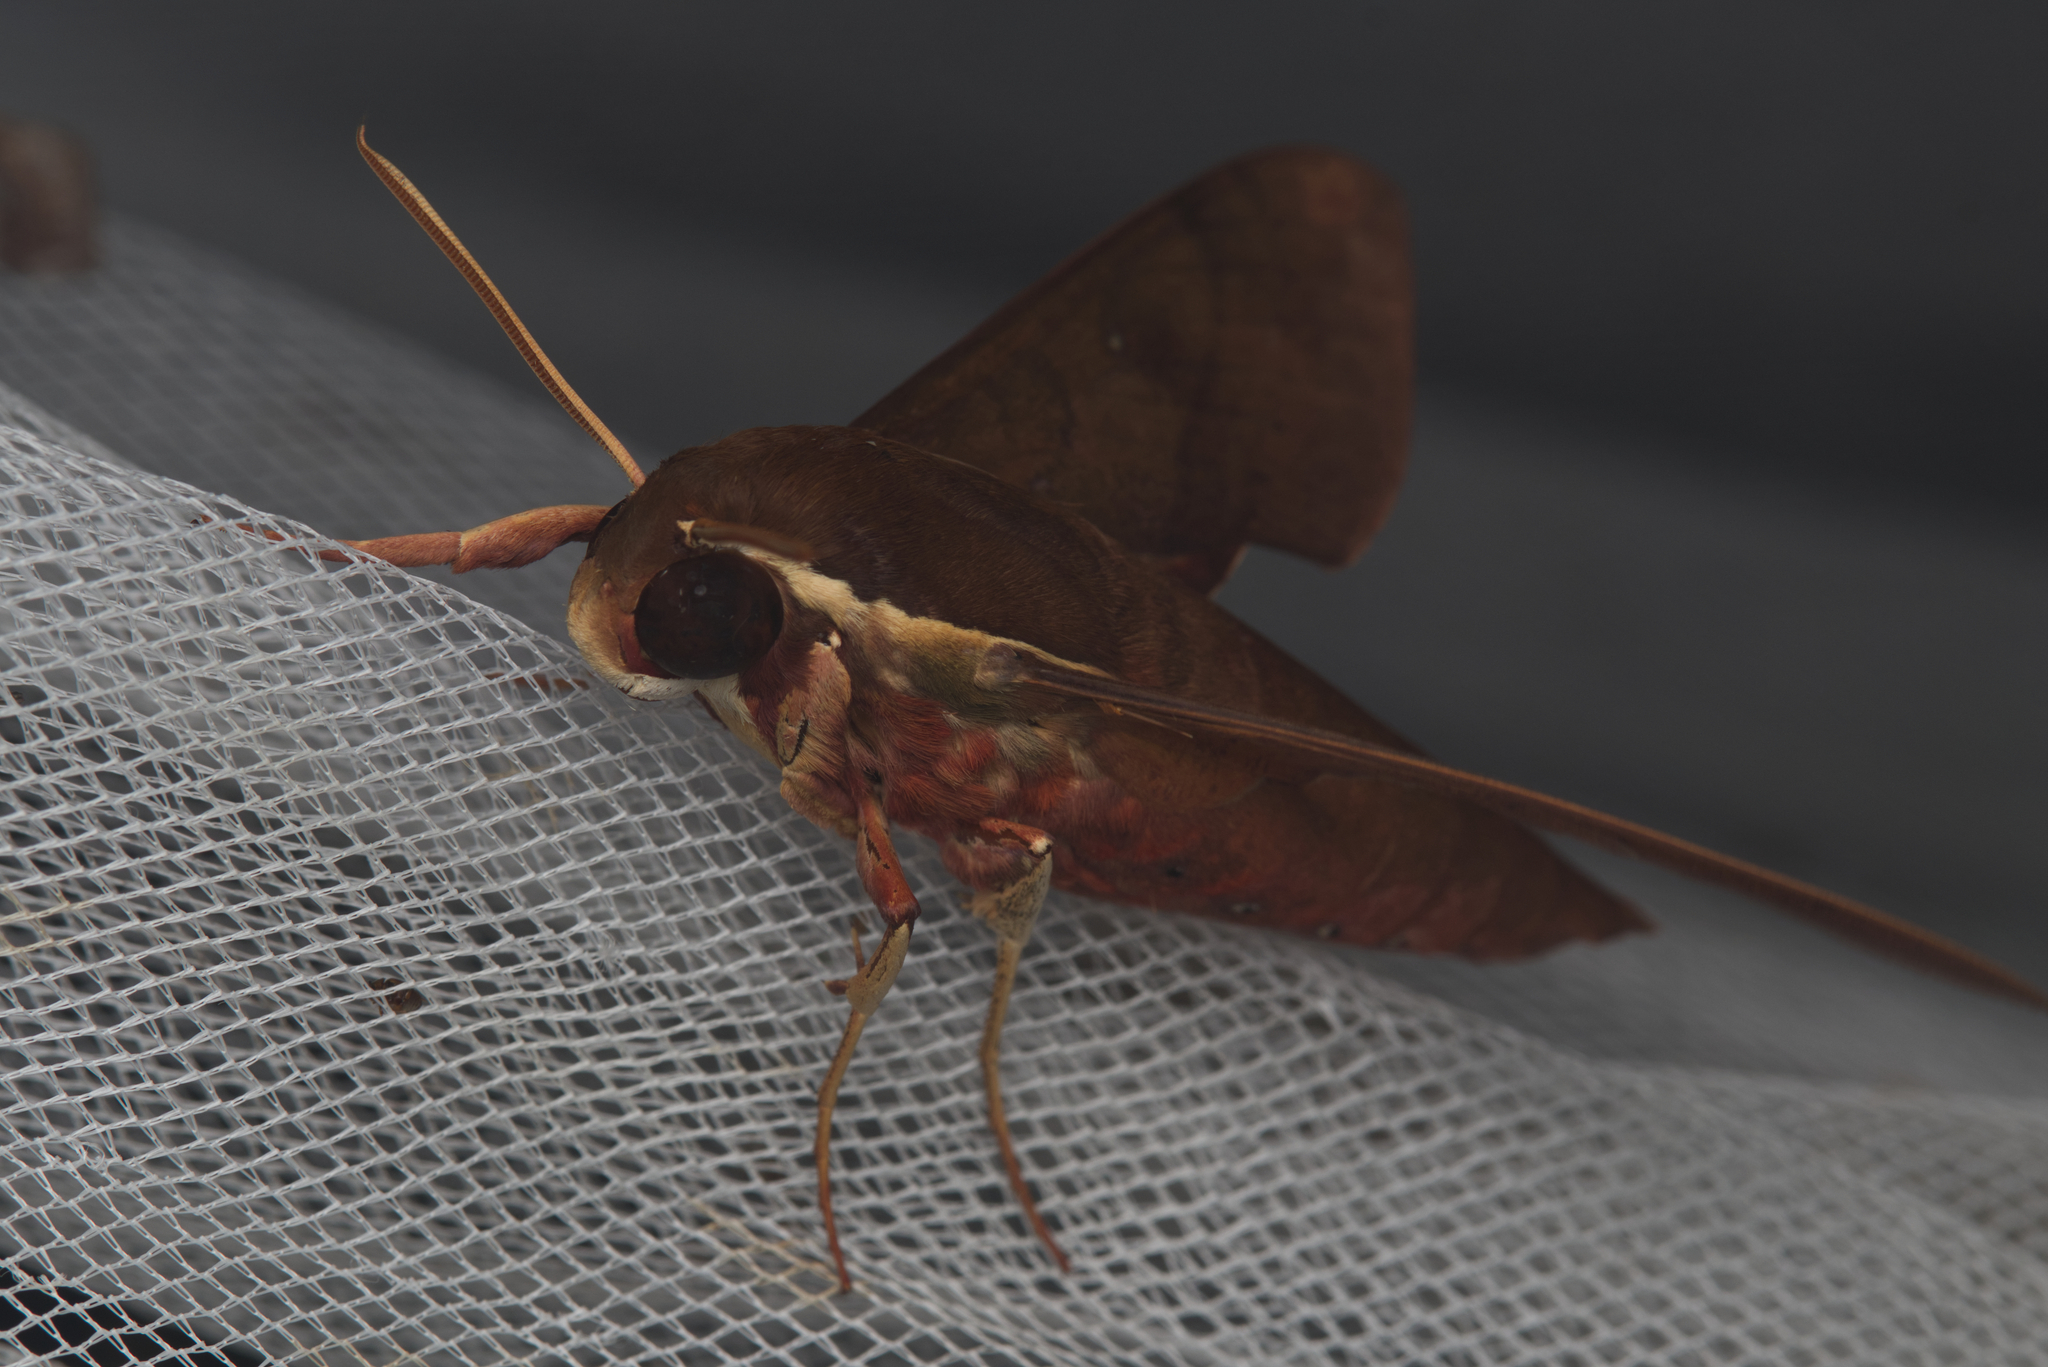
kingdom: Animalia
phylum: Arthropoda
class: Insecta
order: Lepidoptera
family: Sphingidae
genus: Gnathothlibus
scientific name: Gnathothlibus eras
